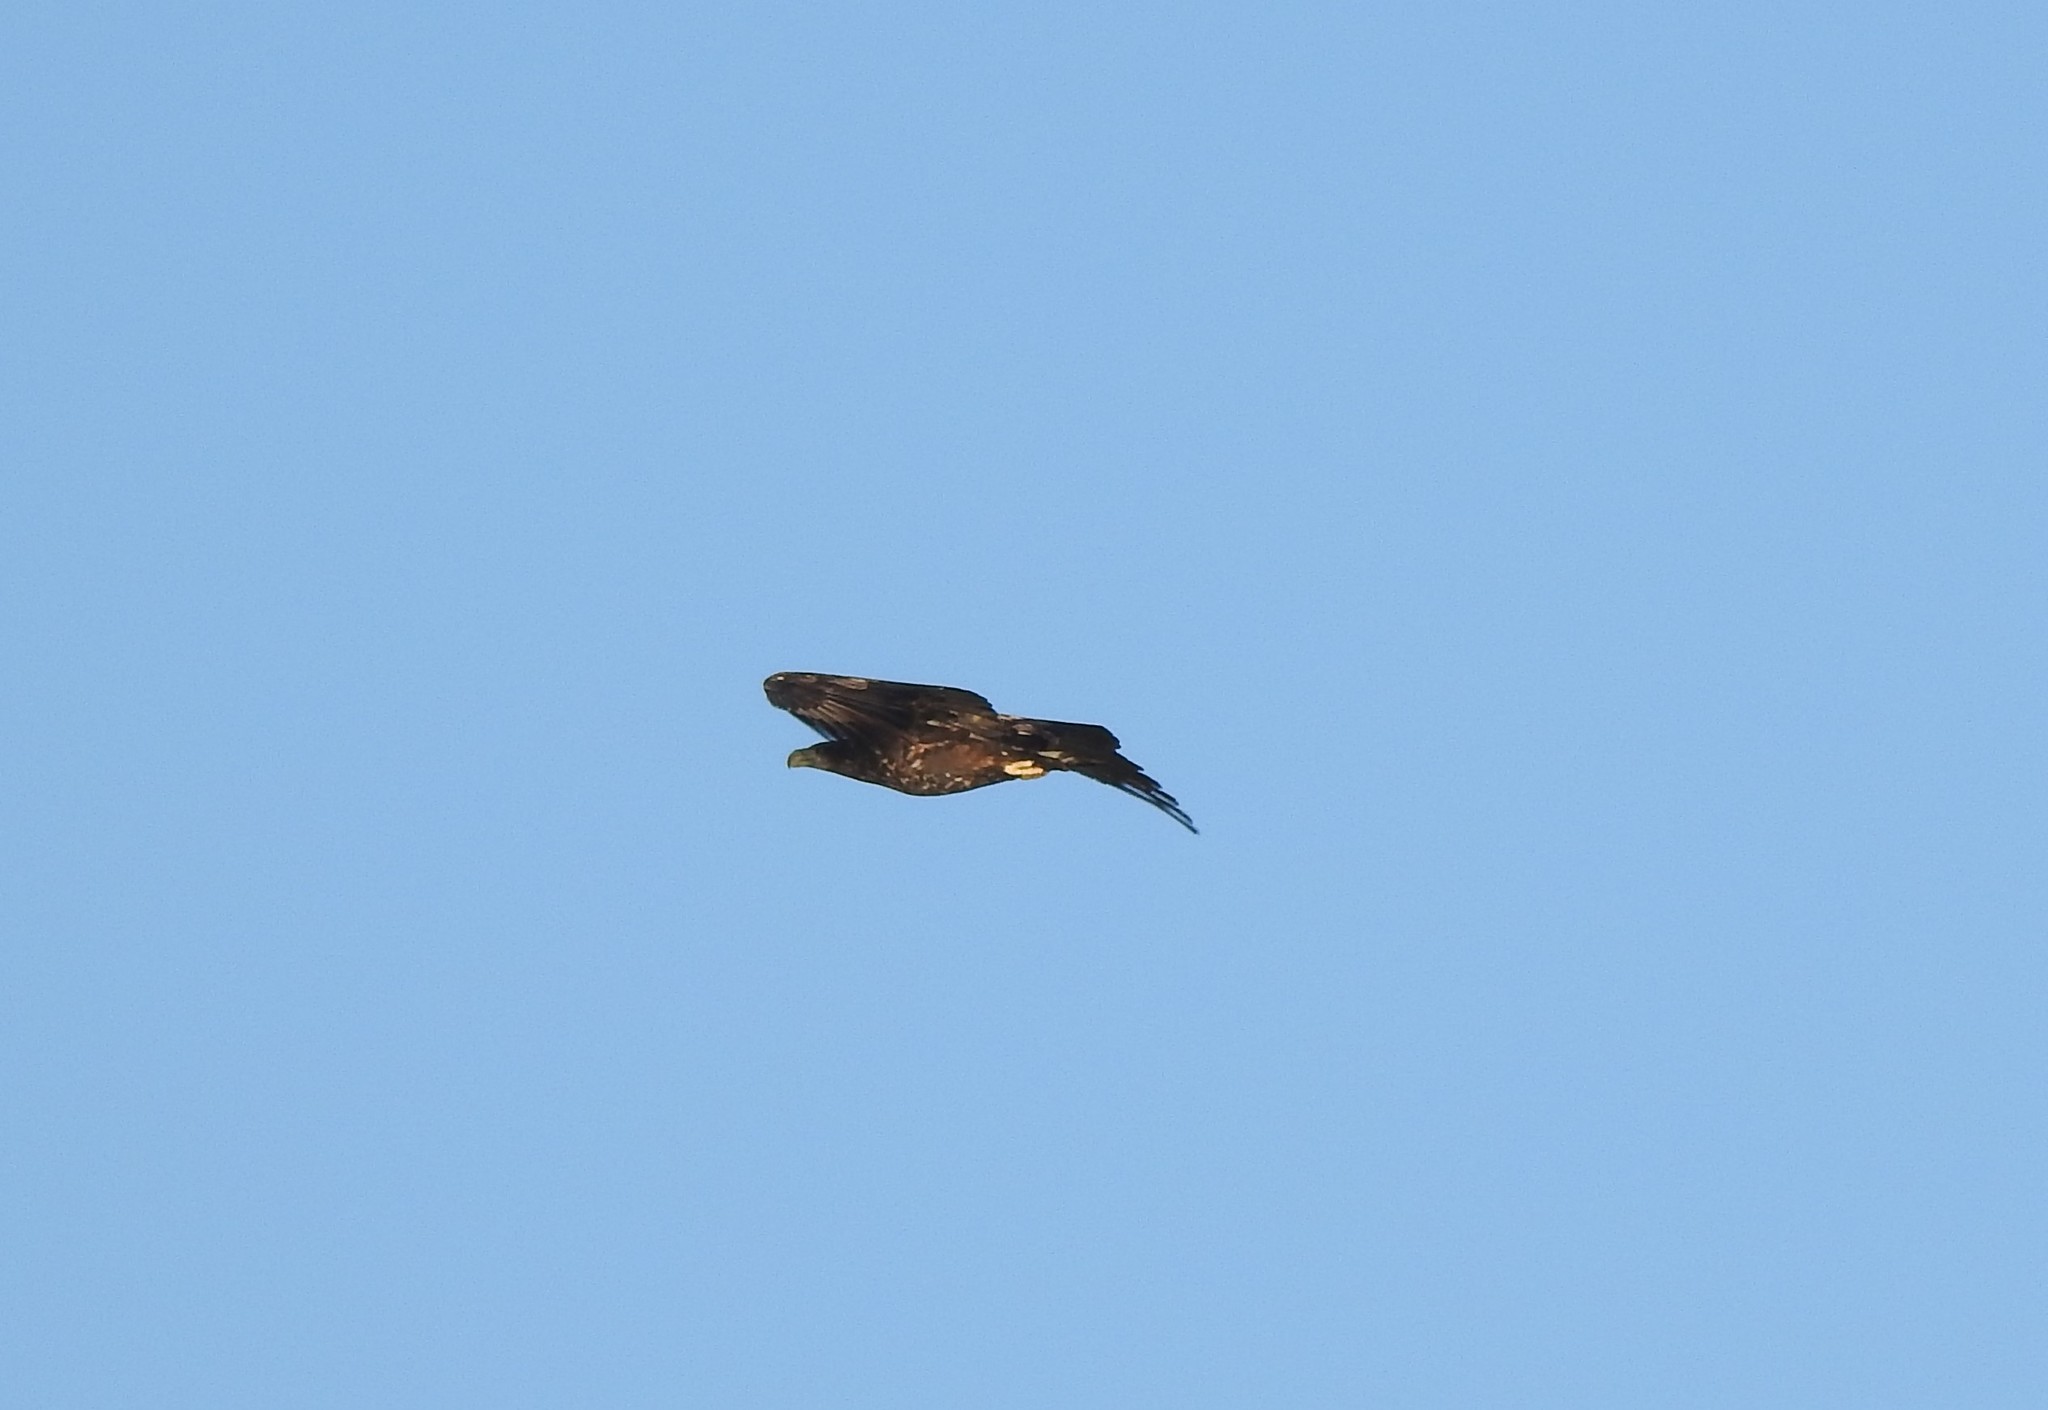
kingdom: Animalia
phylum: Chordata
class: Aves
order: Accipitriformes
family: Accipitridae
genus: Haliaeetus
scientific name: Haliaeetus albicilla
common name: White-tailed eagle
